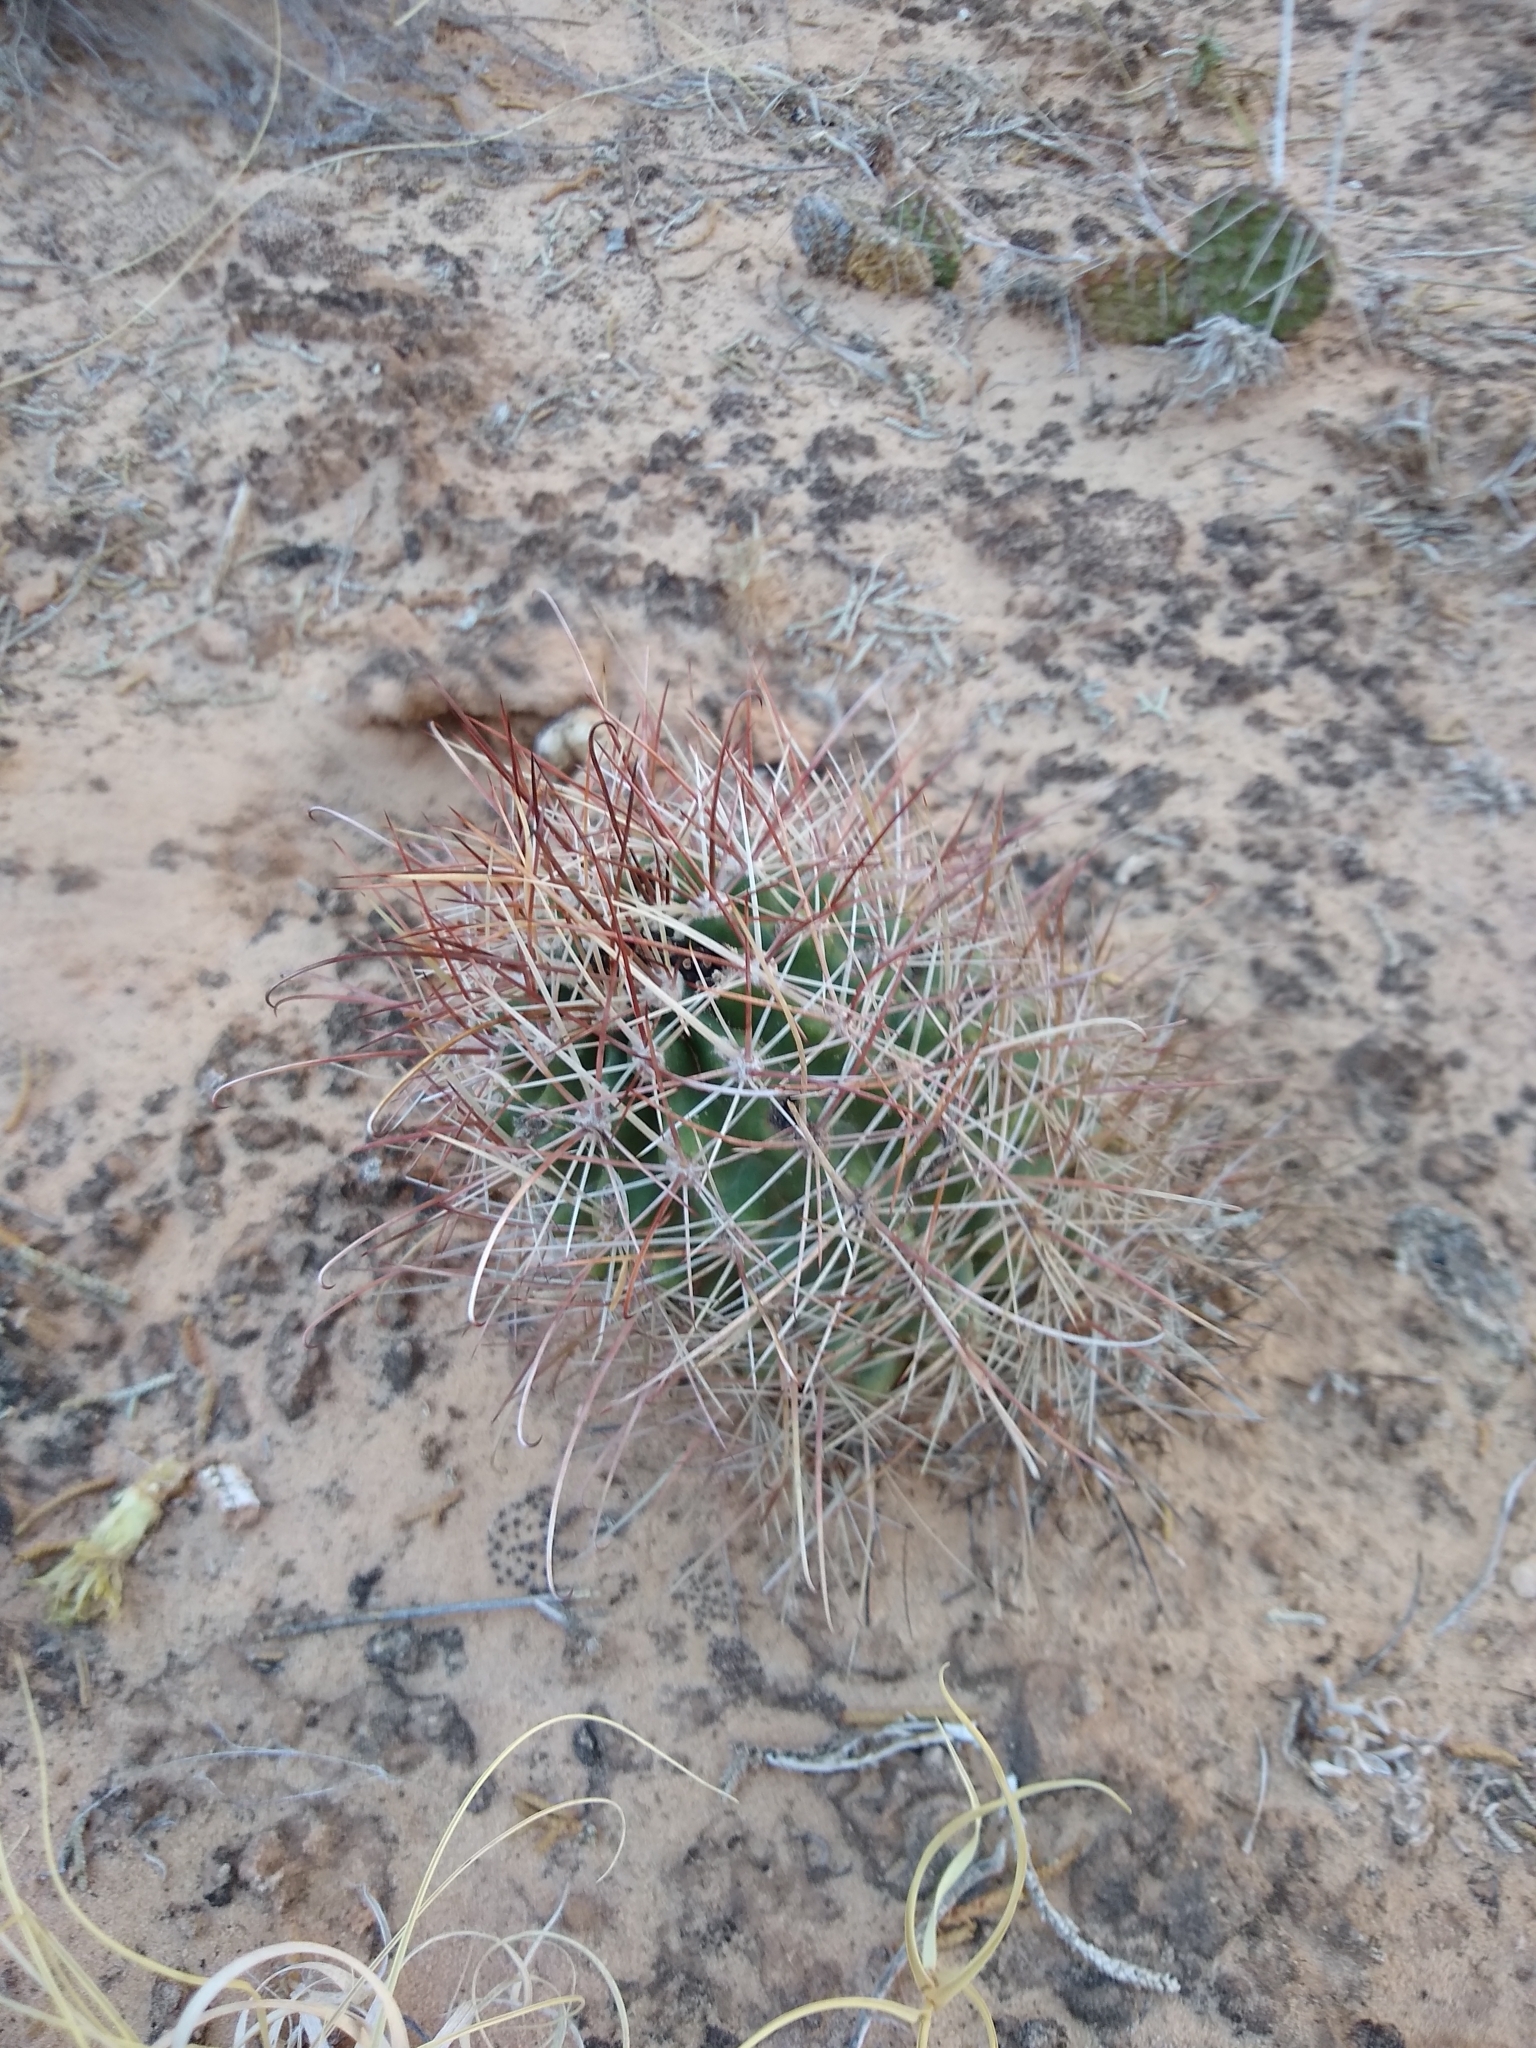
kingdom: Plantae
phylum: Tracheophyta
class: Magnoliopsida
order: Caryophyllales
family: Cactaceae
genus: Sclerocactus
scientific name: Sclerocactus parviflorus
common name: Small-flower fishhook cactus
